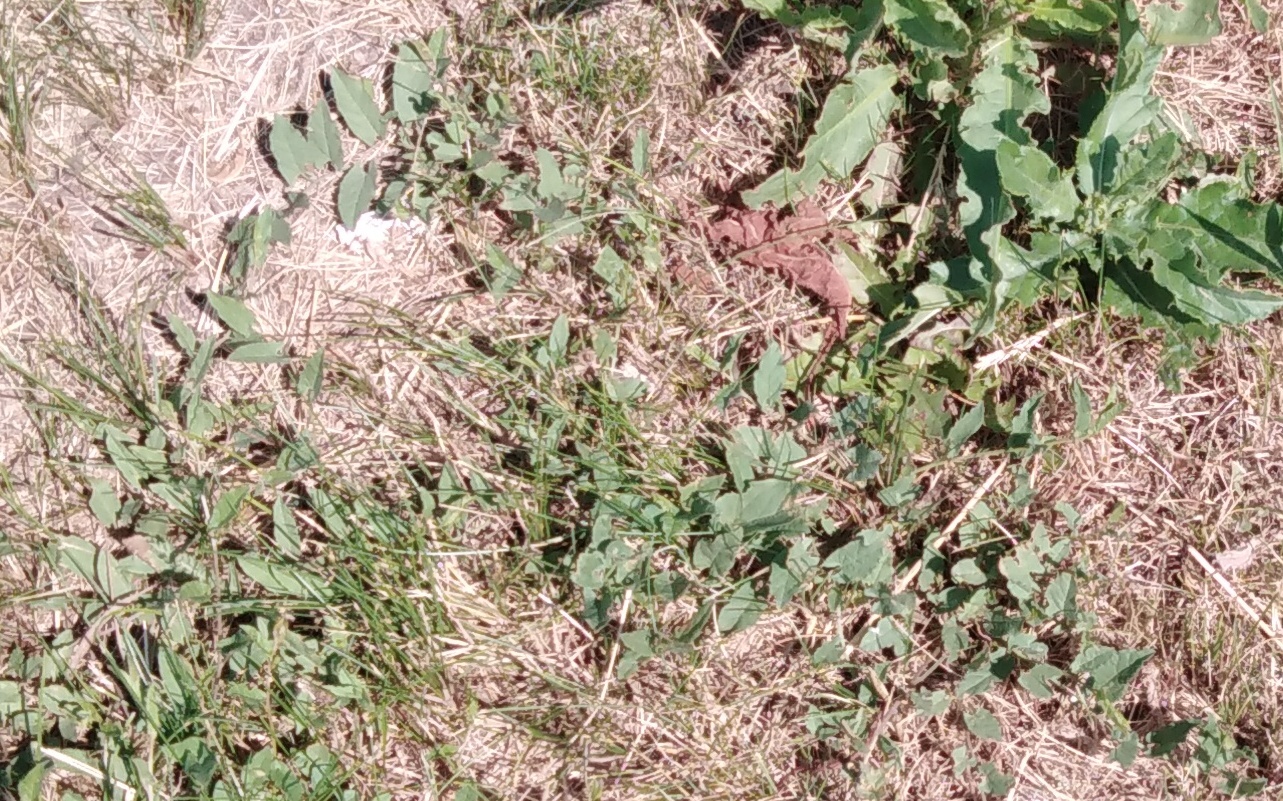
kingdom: Plantae
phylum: Tracheophyta
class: Magnoliopsida
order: Solanales
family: Convolvulaceae
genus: Convolvulus
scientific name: Convolvulus arvensis
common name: Field bindweed
